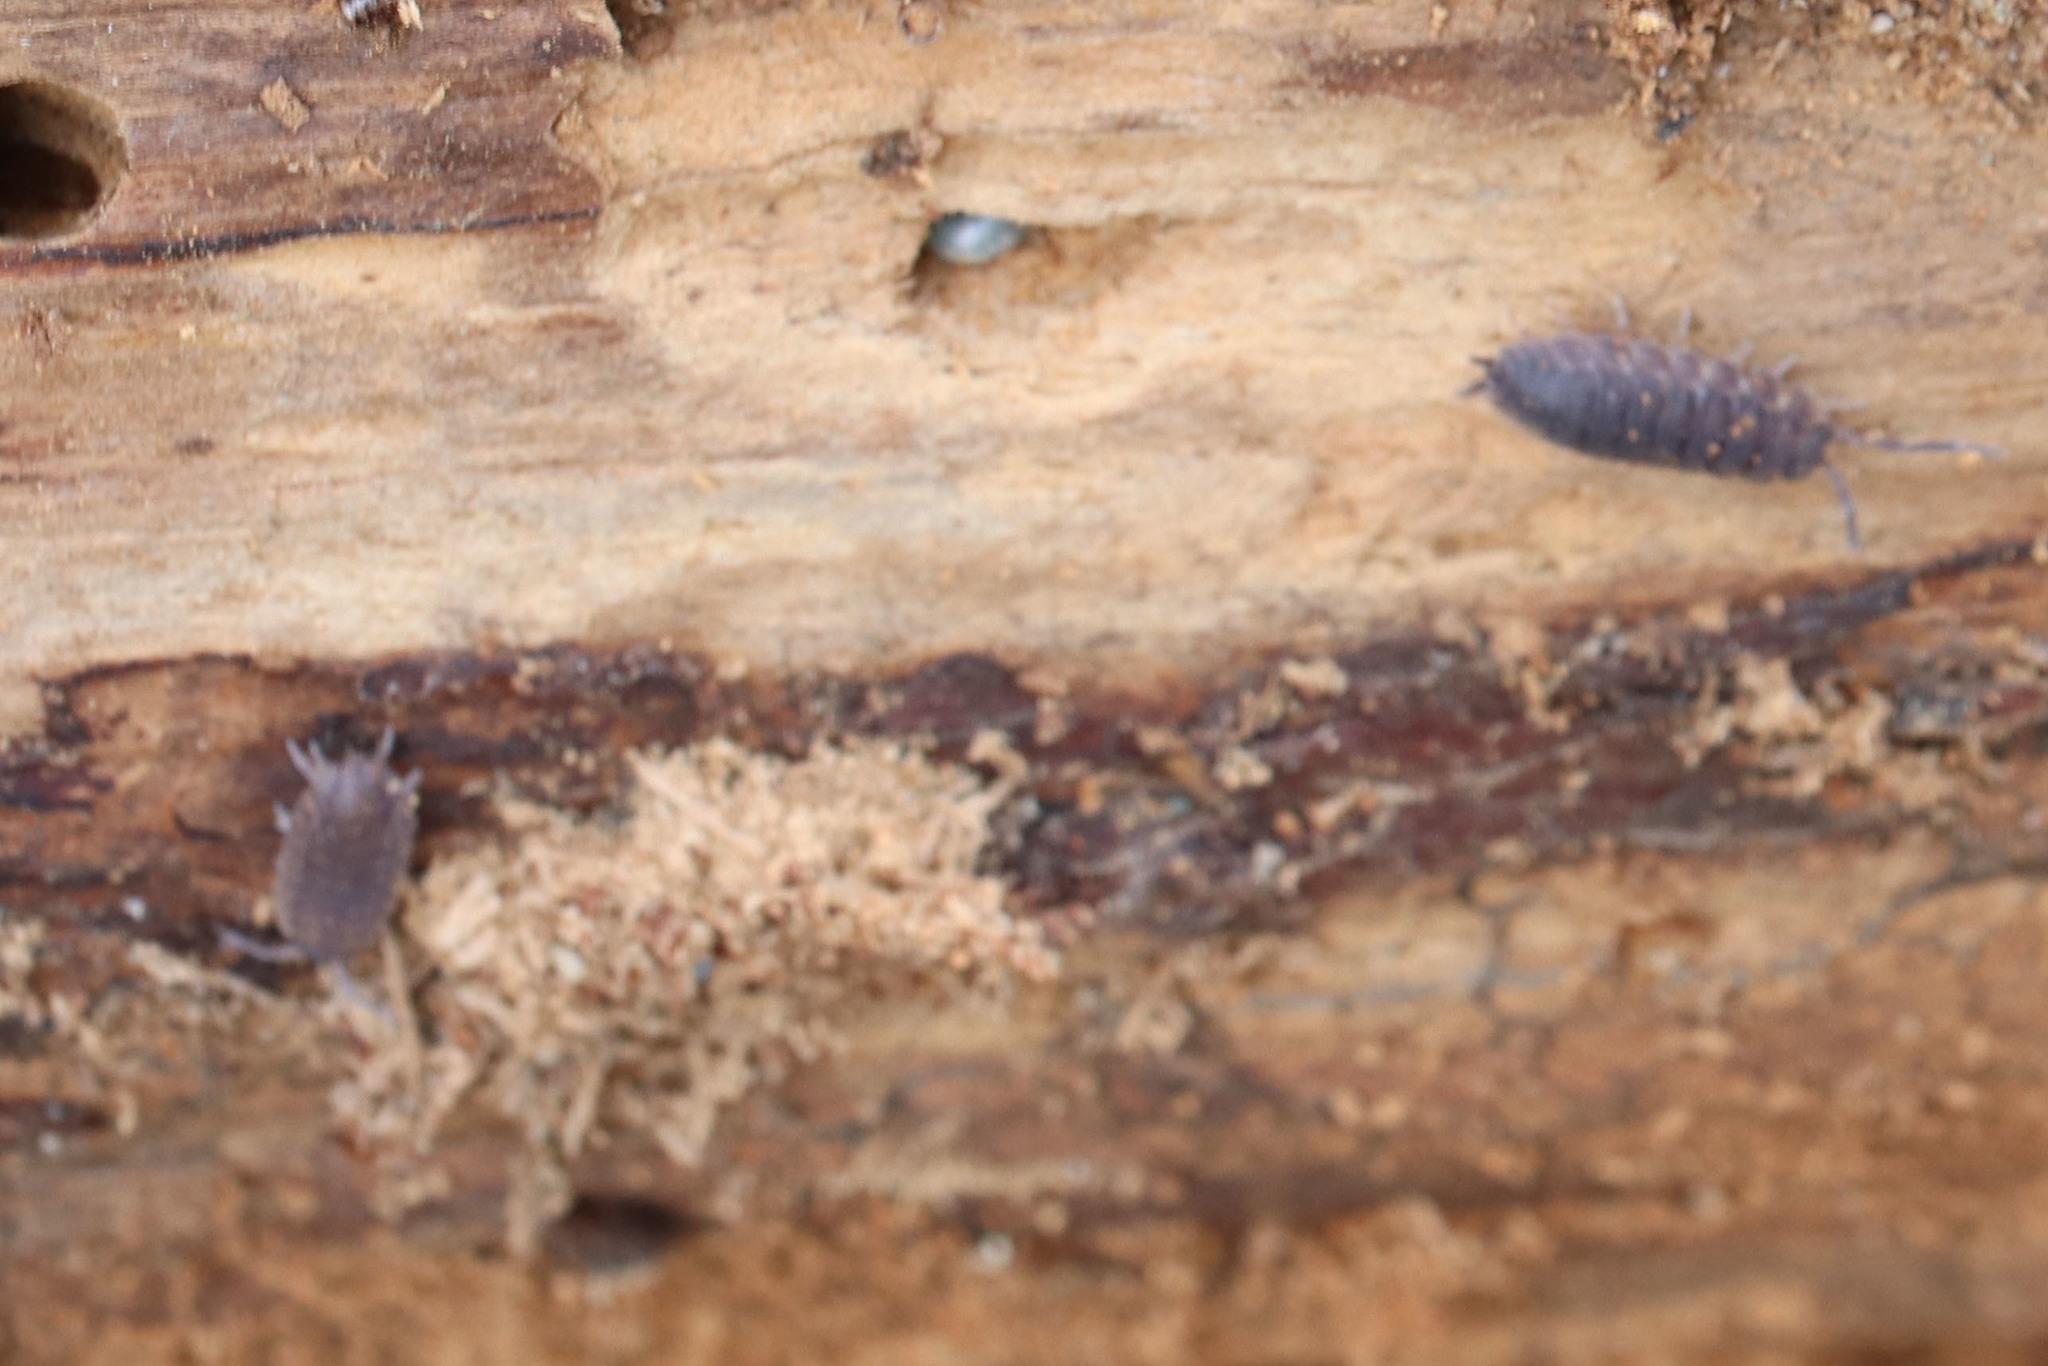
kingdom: Animalia
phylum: Arthropoda
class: Malacostraca
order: Isopoda
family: Porcellionidae
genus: Porcellio
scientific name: Porcellio scaber
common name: Common rough woodlouse
